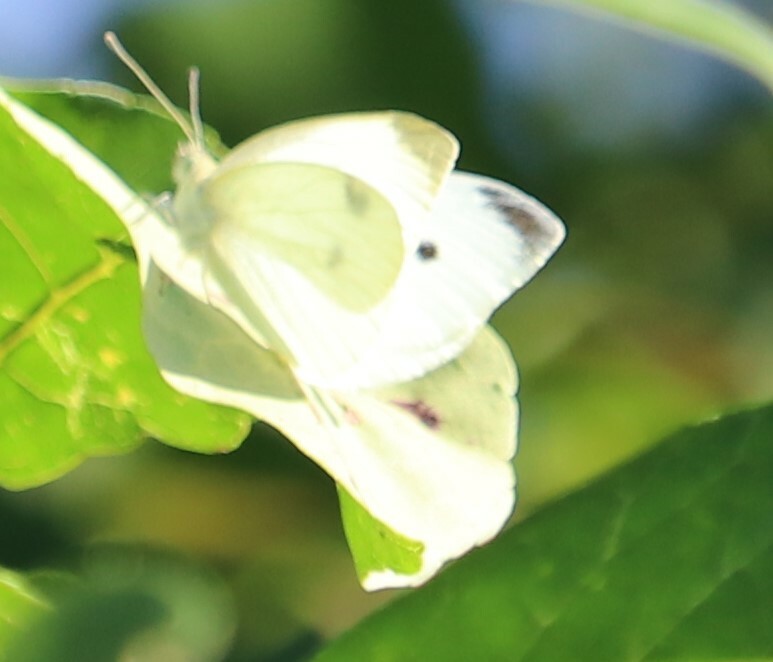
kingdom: Animalia
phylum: Arthropoda
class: Insecta
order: Lepidoptera
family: Pieridae
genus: Pieris
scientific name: Pieris rapae
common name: Small white
